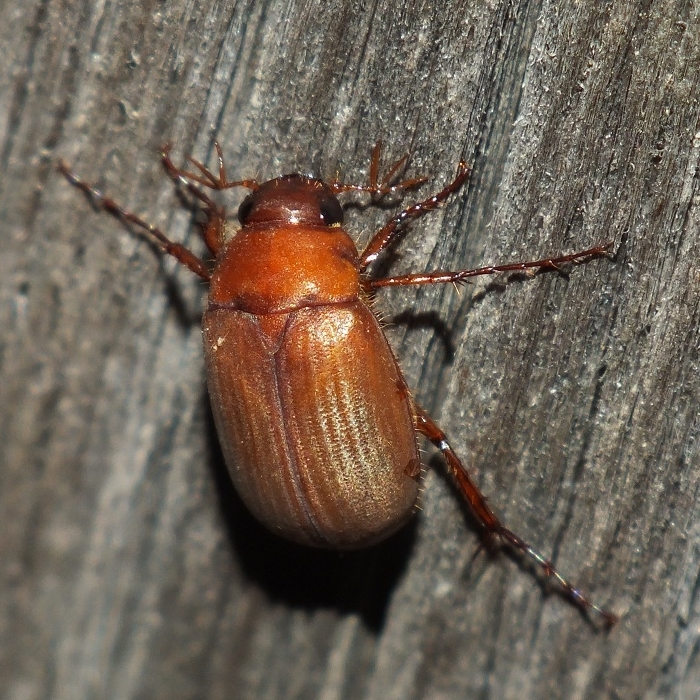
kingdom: Animalia
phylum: Arthropoda
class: Insecta
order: Coleoptera
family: Scarabaeidae
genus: Serica
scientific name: Serica brunnea
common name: Brown chafer
